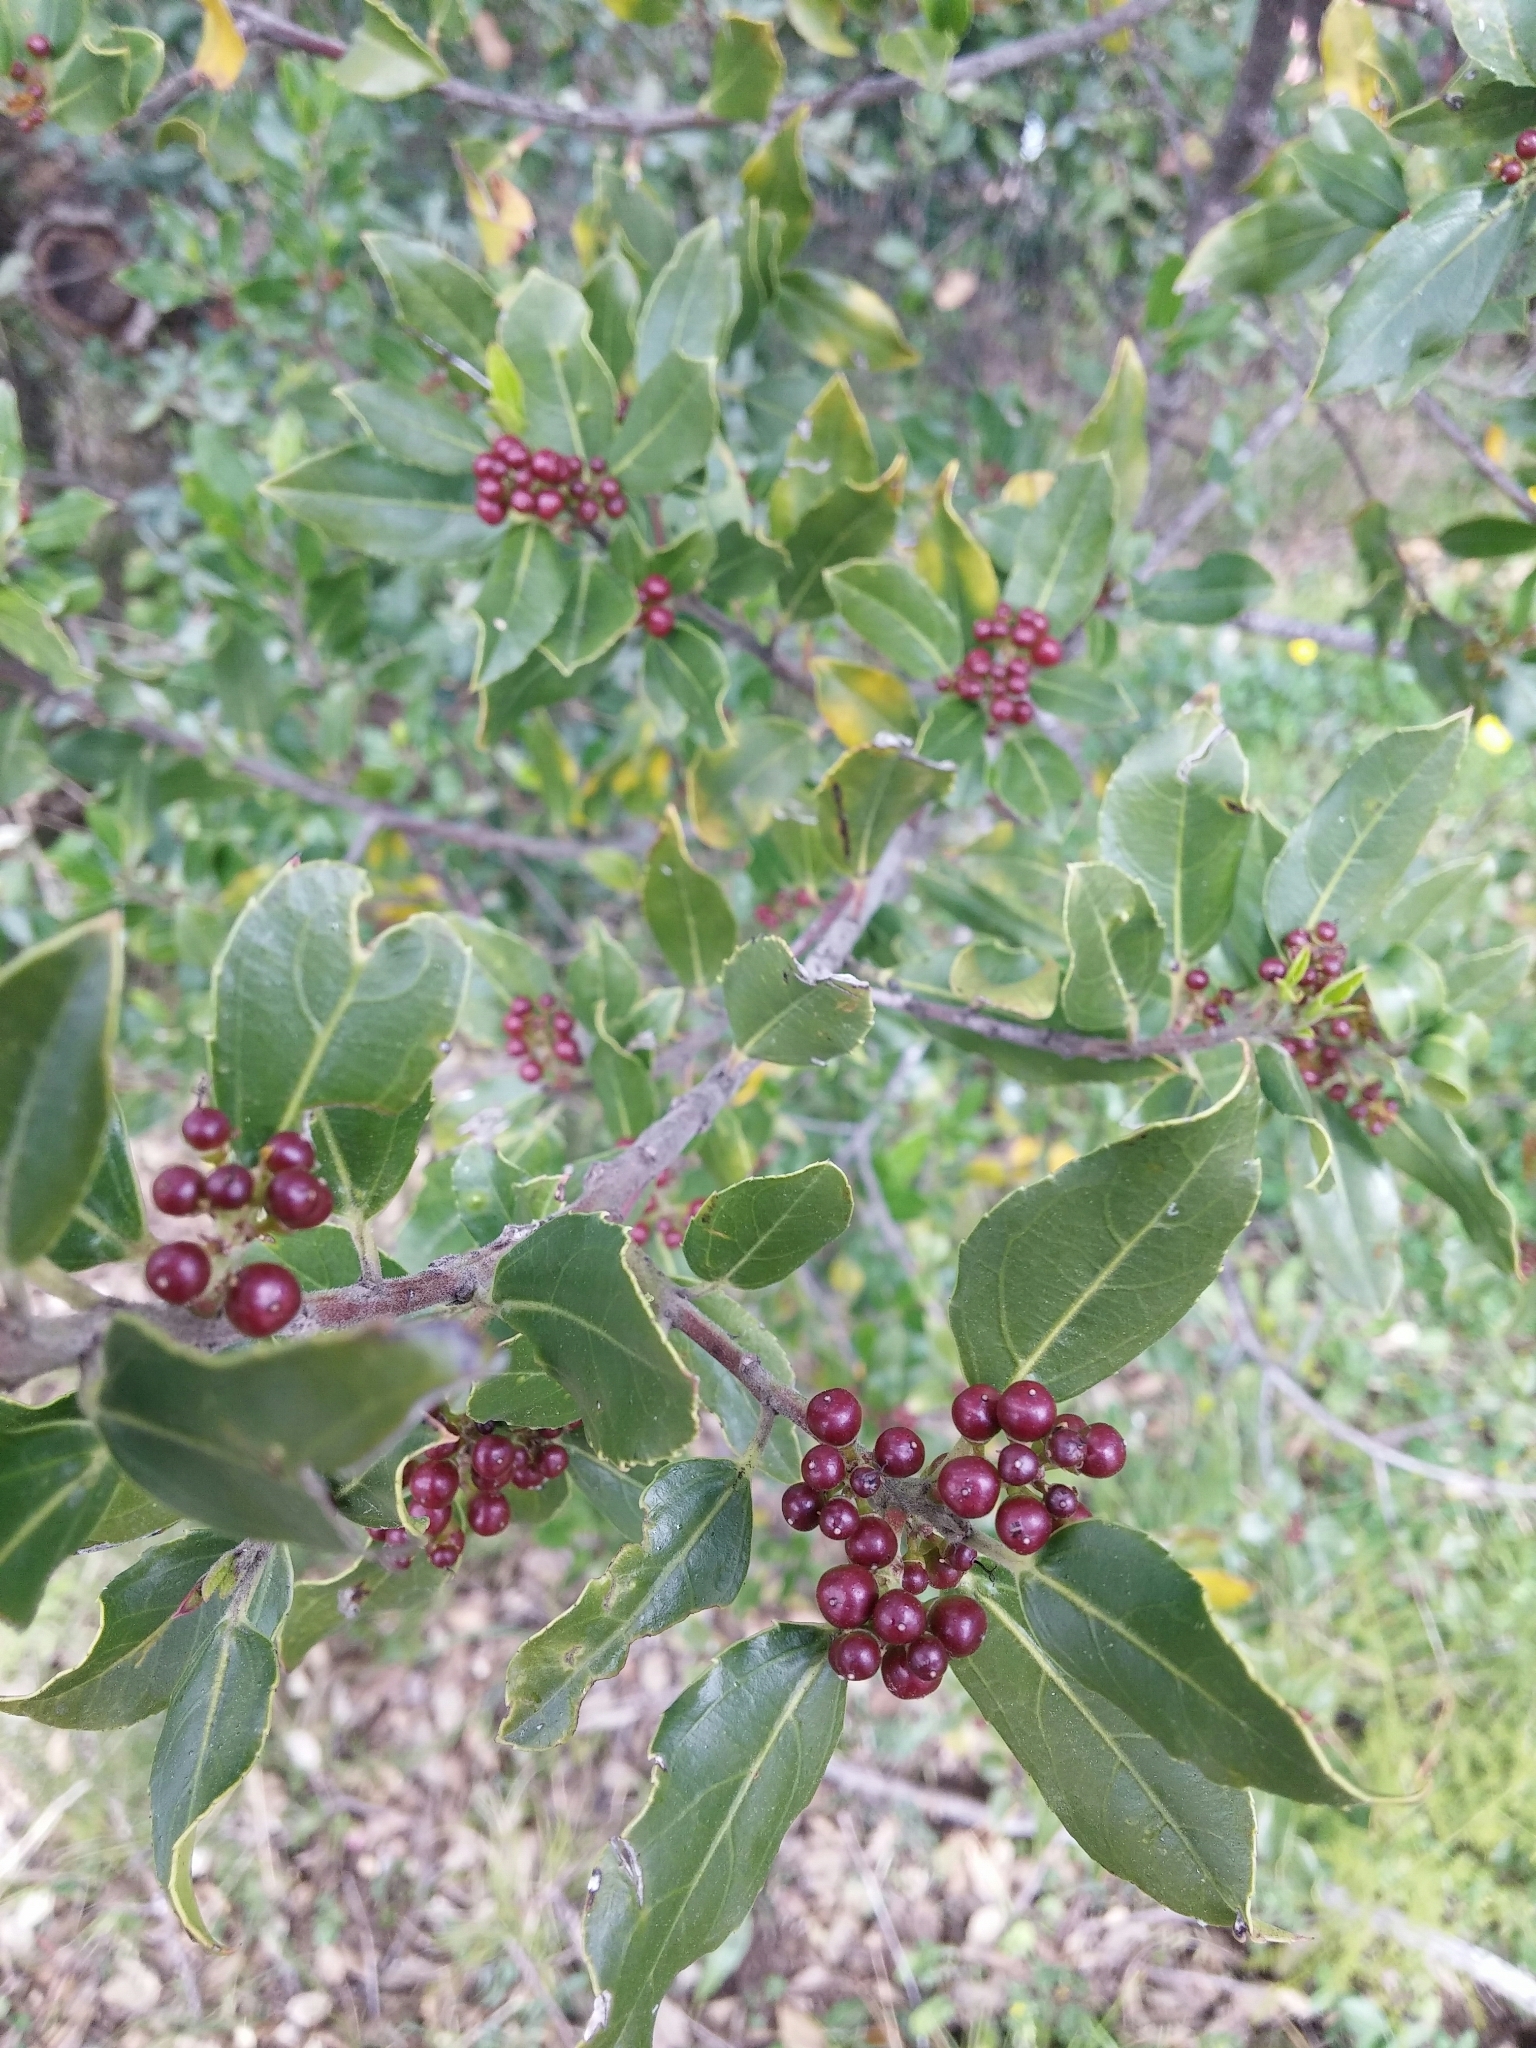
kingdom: Plantae
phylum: Tracheophyta
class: Magnoliopsida
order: Rosales
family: Rhamnaceae
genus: Rhamnus
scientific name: Rhamnus alaternus
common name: Mediterranean buckthorn
